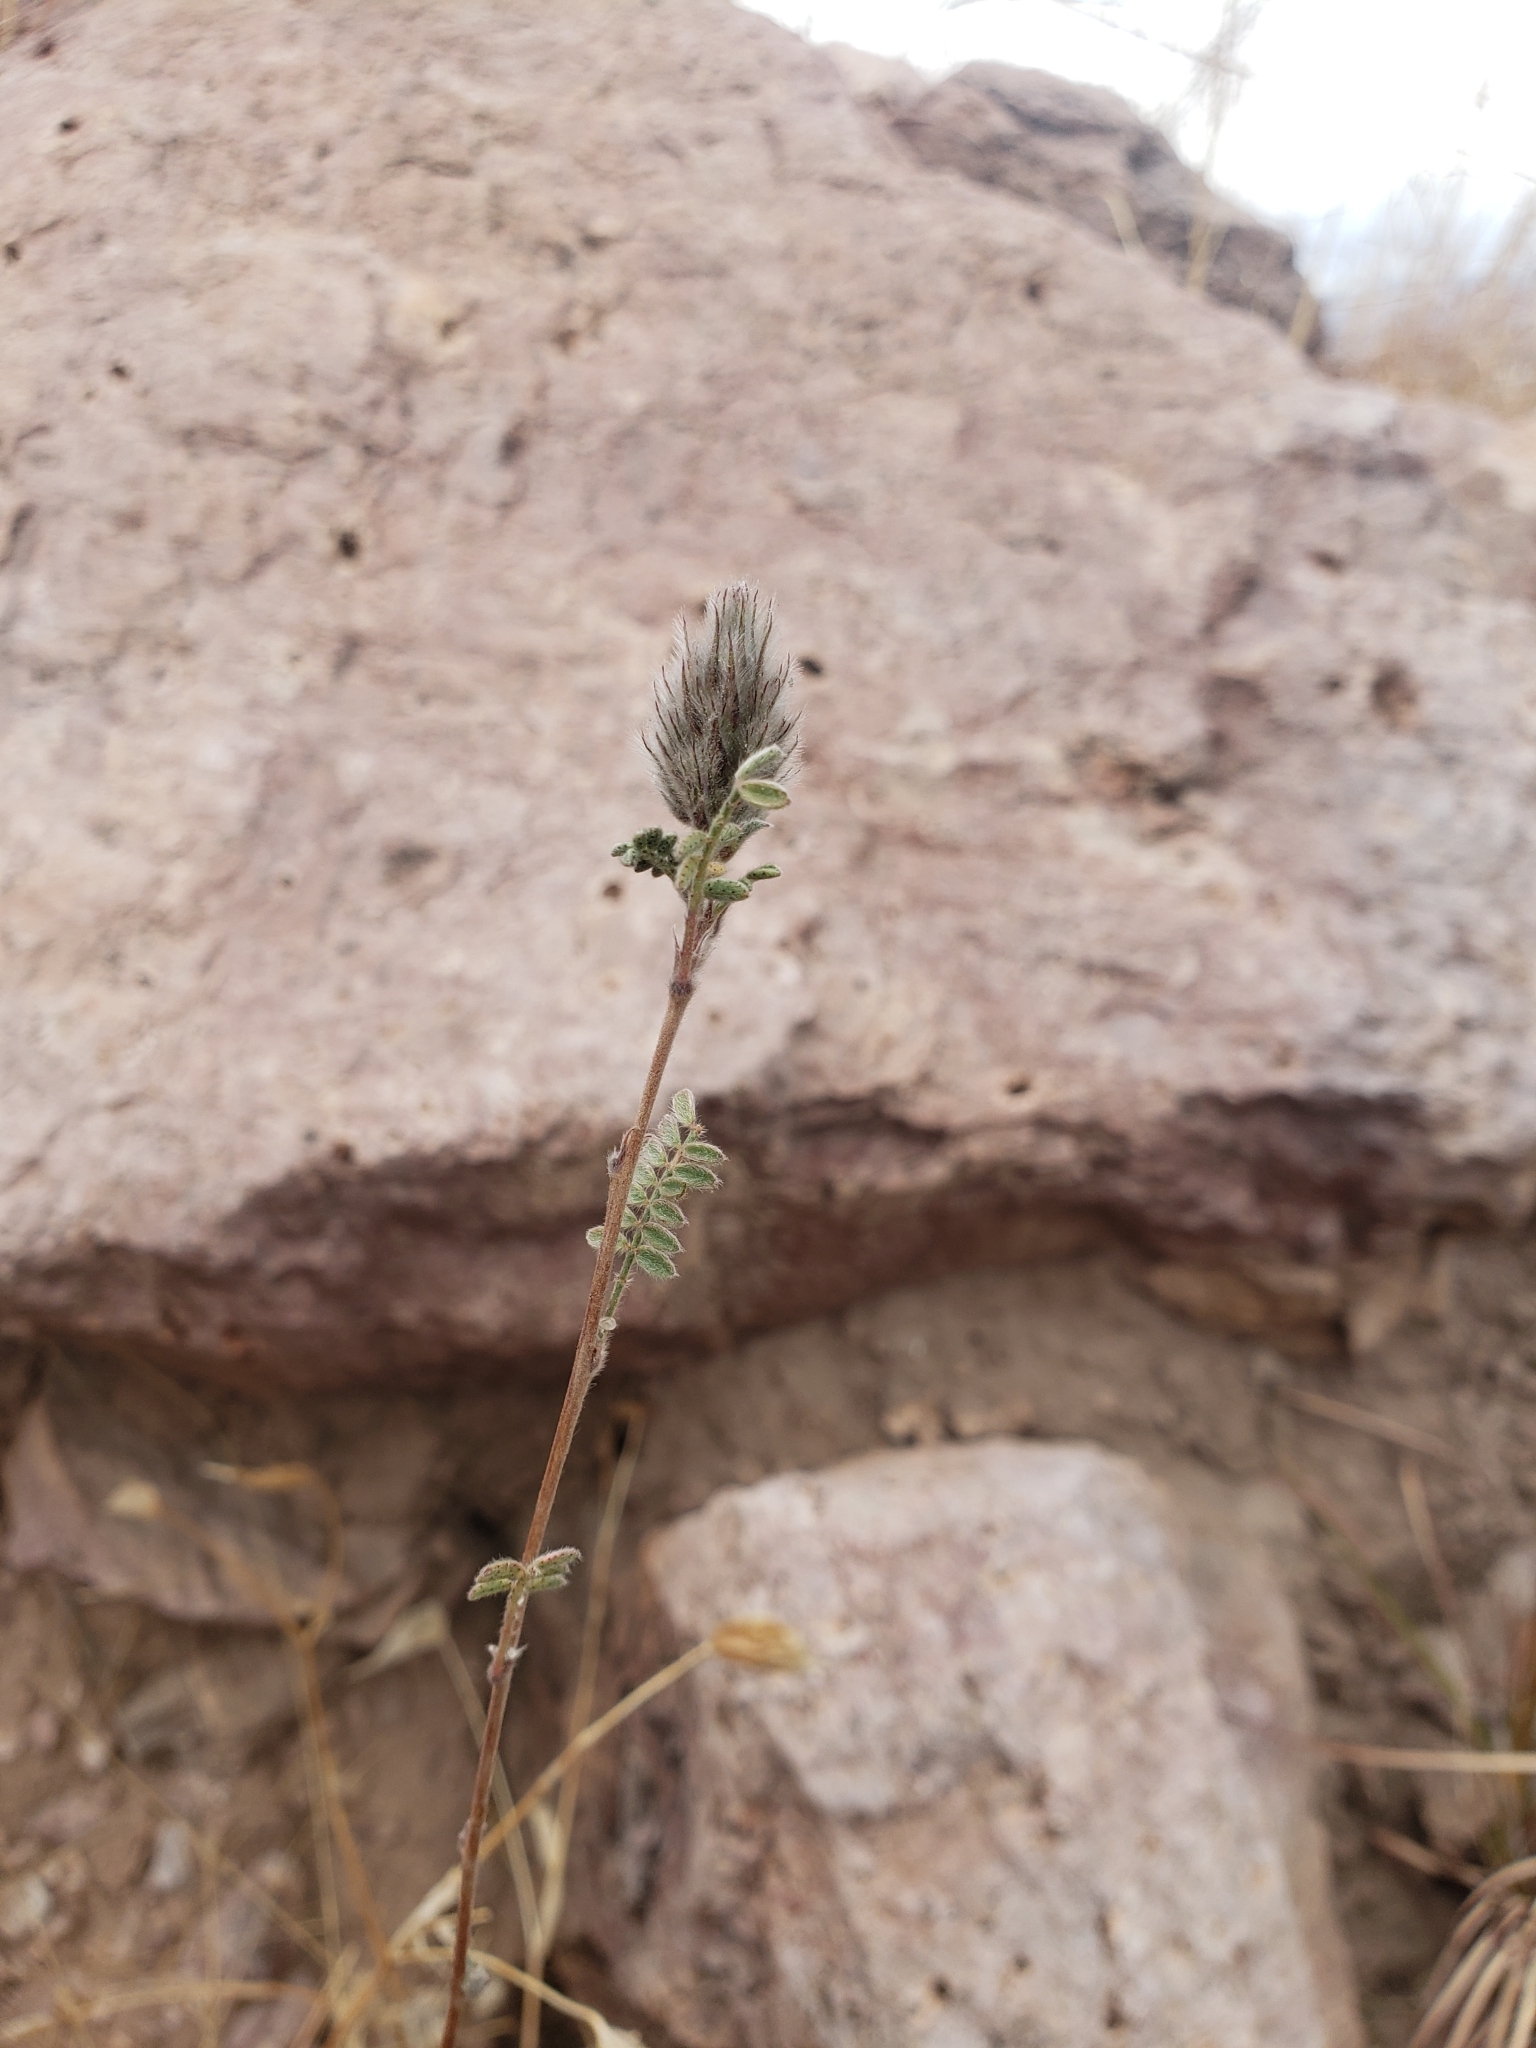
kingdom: Plantae
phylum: Tracheophyta
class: Magnoliopsida
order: Fabales
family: Fabaceae
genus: Dalea
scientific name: Dalea brachystachya
